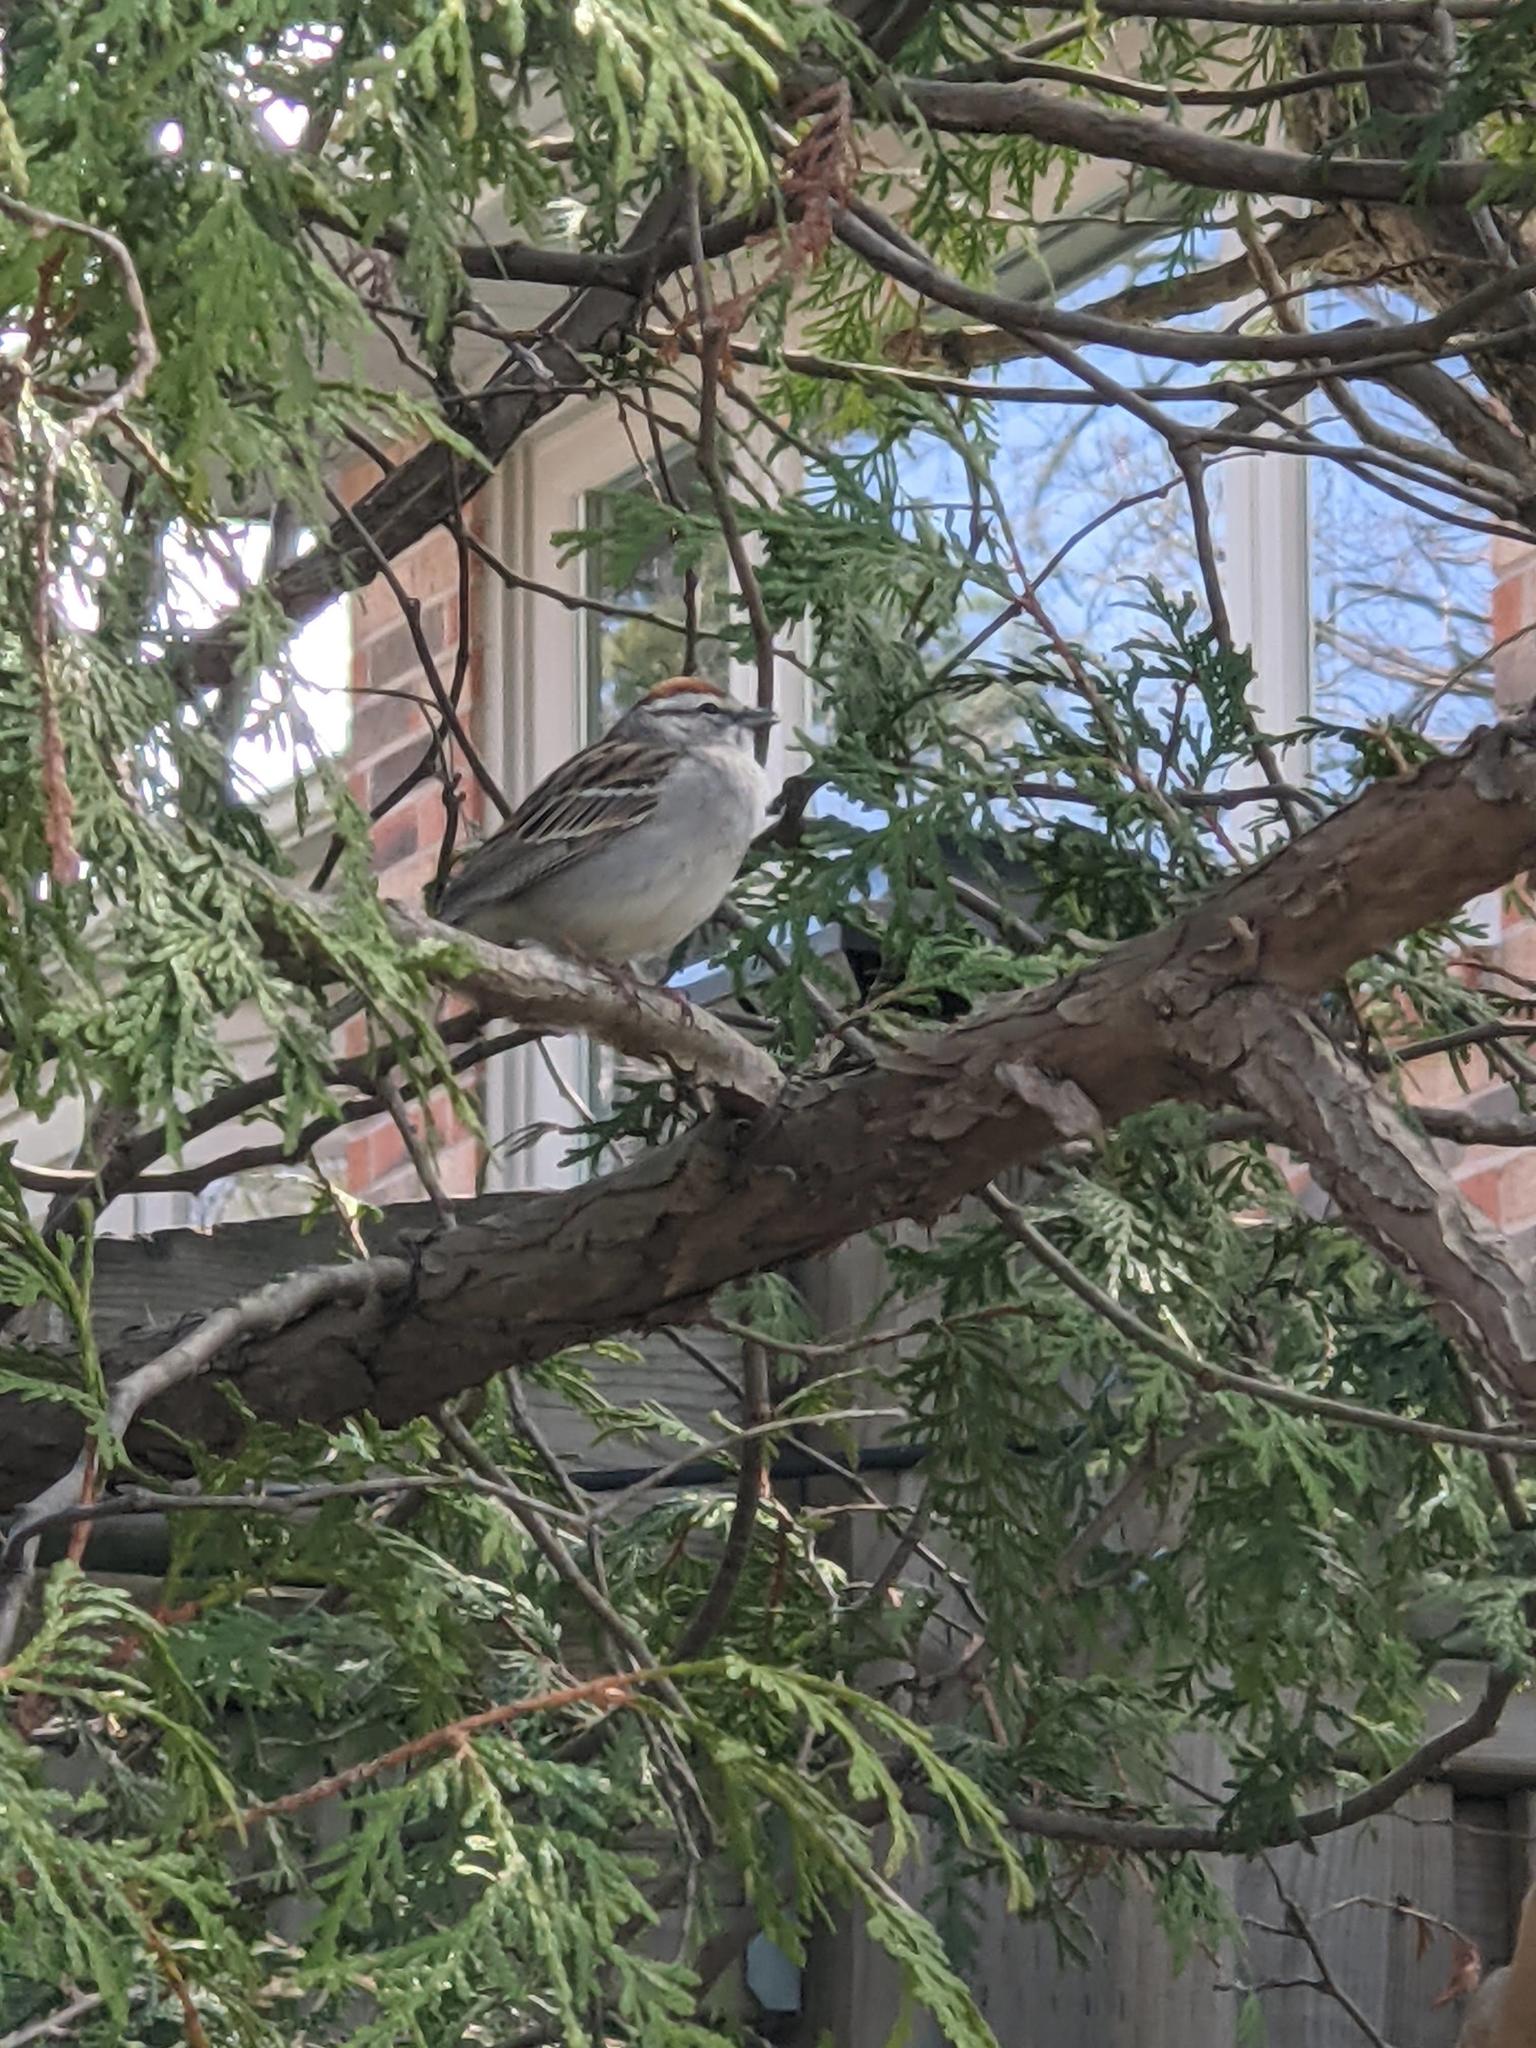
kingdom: Animalia
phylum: Chordata
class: Aves
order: Passeriformes
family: Passerellidae
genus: Spizella
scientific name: Spizella passerina
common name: Chipping sparrow
